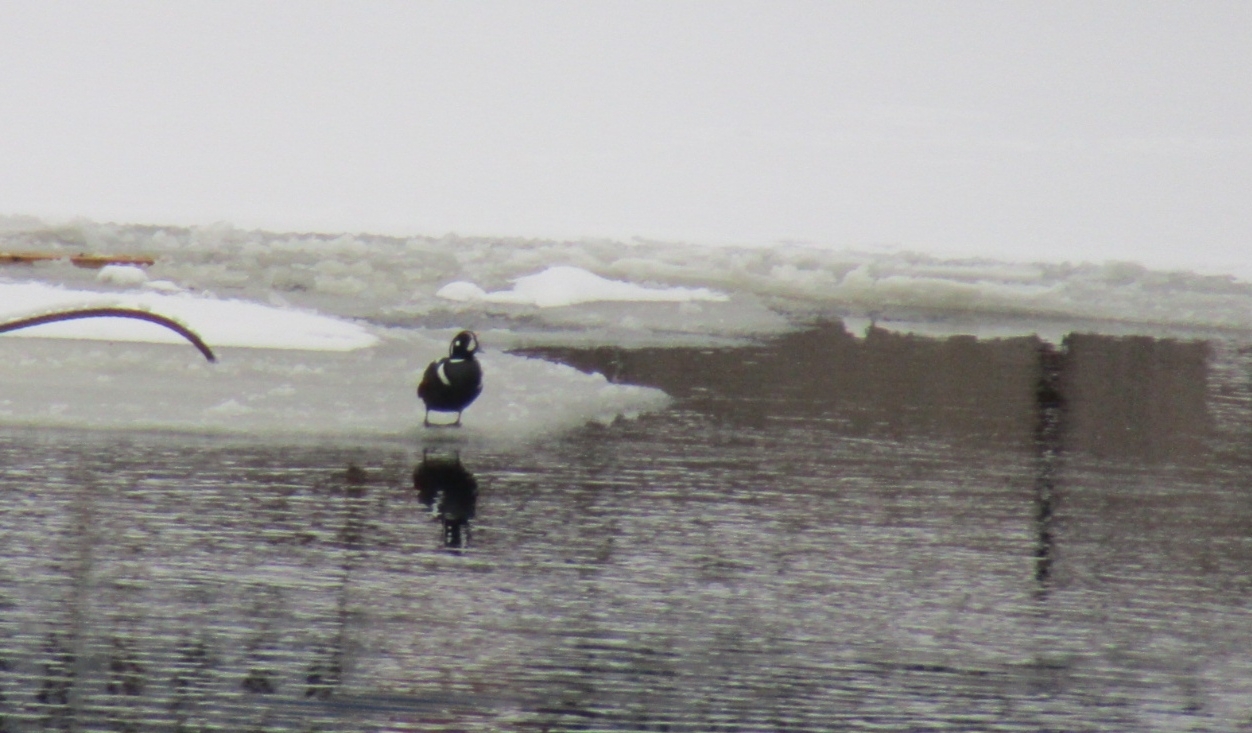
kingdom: Animalia
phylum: Chordata
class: Aves
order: Anseriformes
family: Anatidae
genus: Histrionicus
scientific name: Histrionicus histrionicus
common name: Harlequin duck
